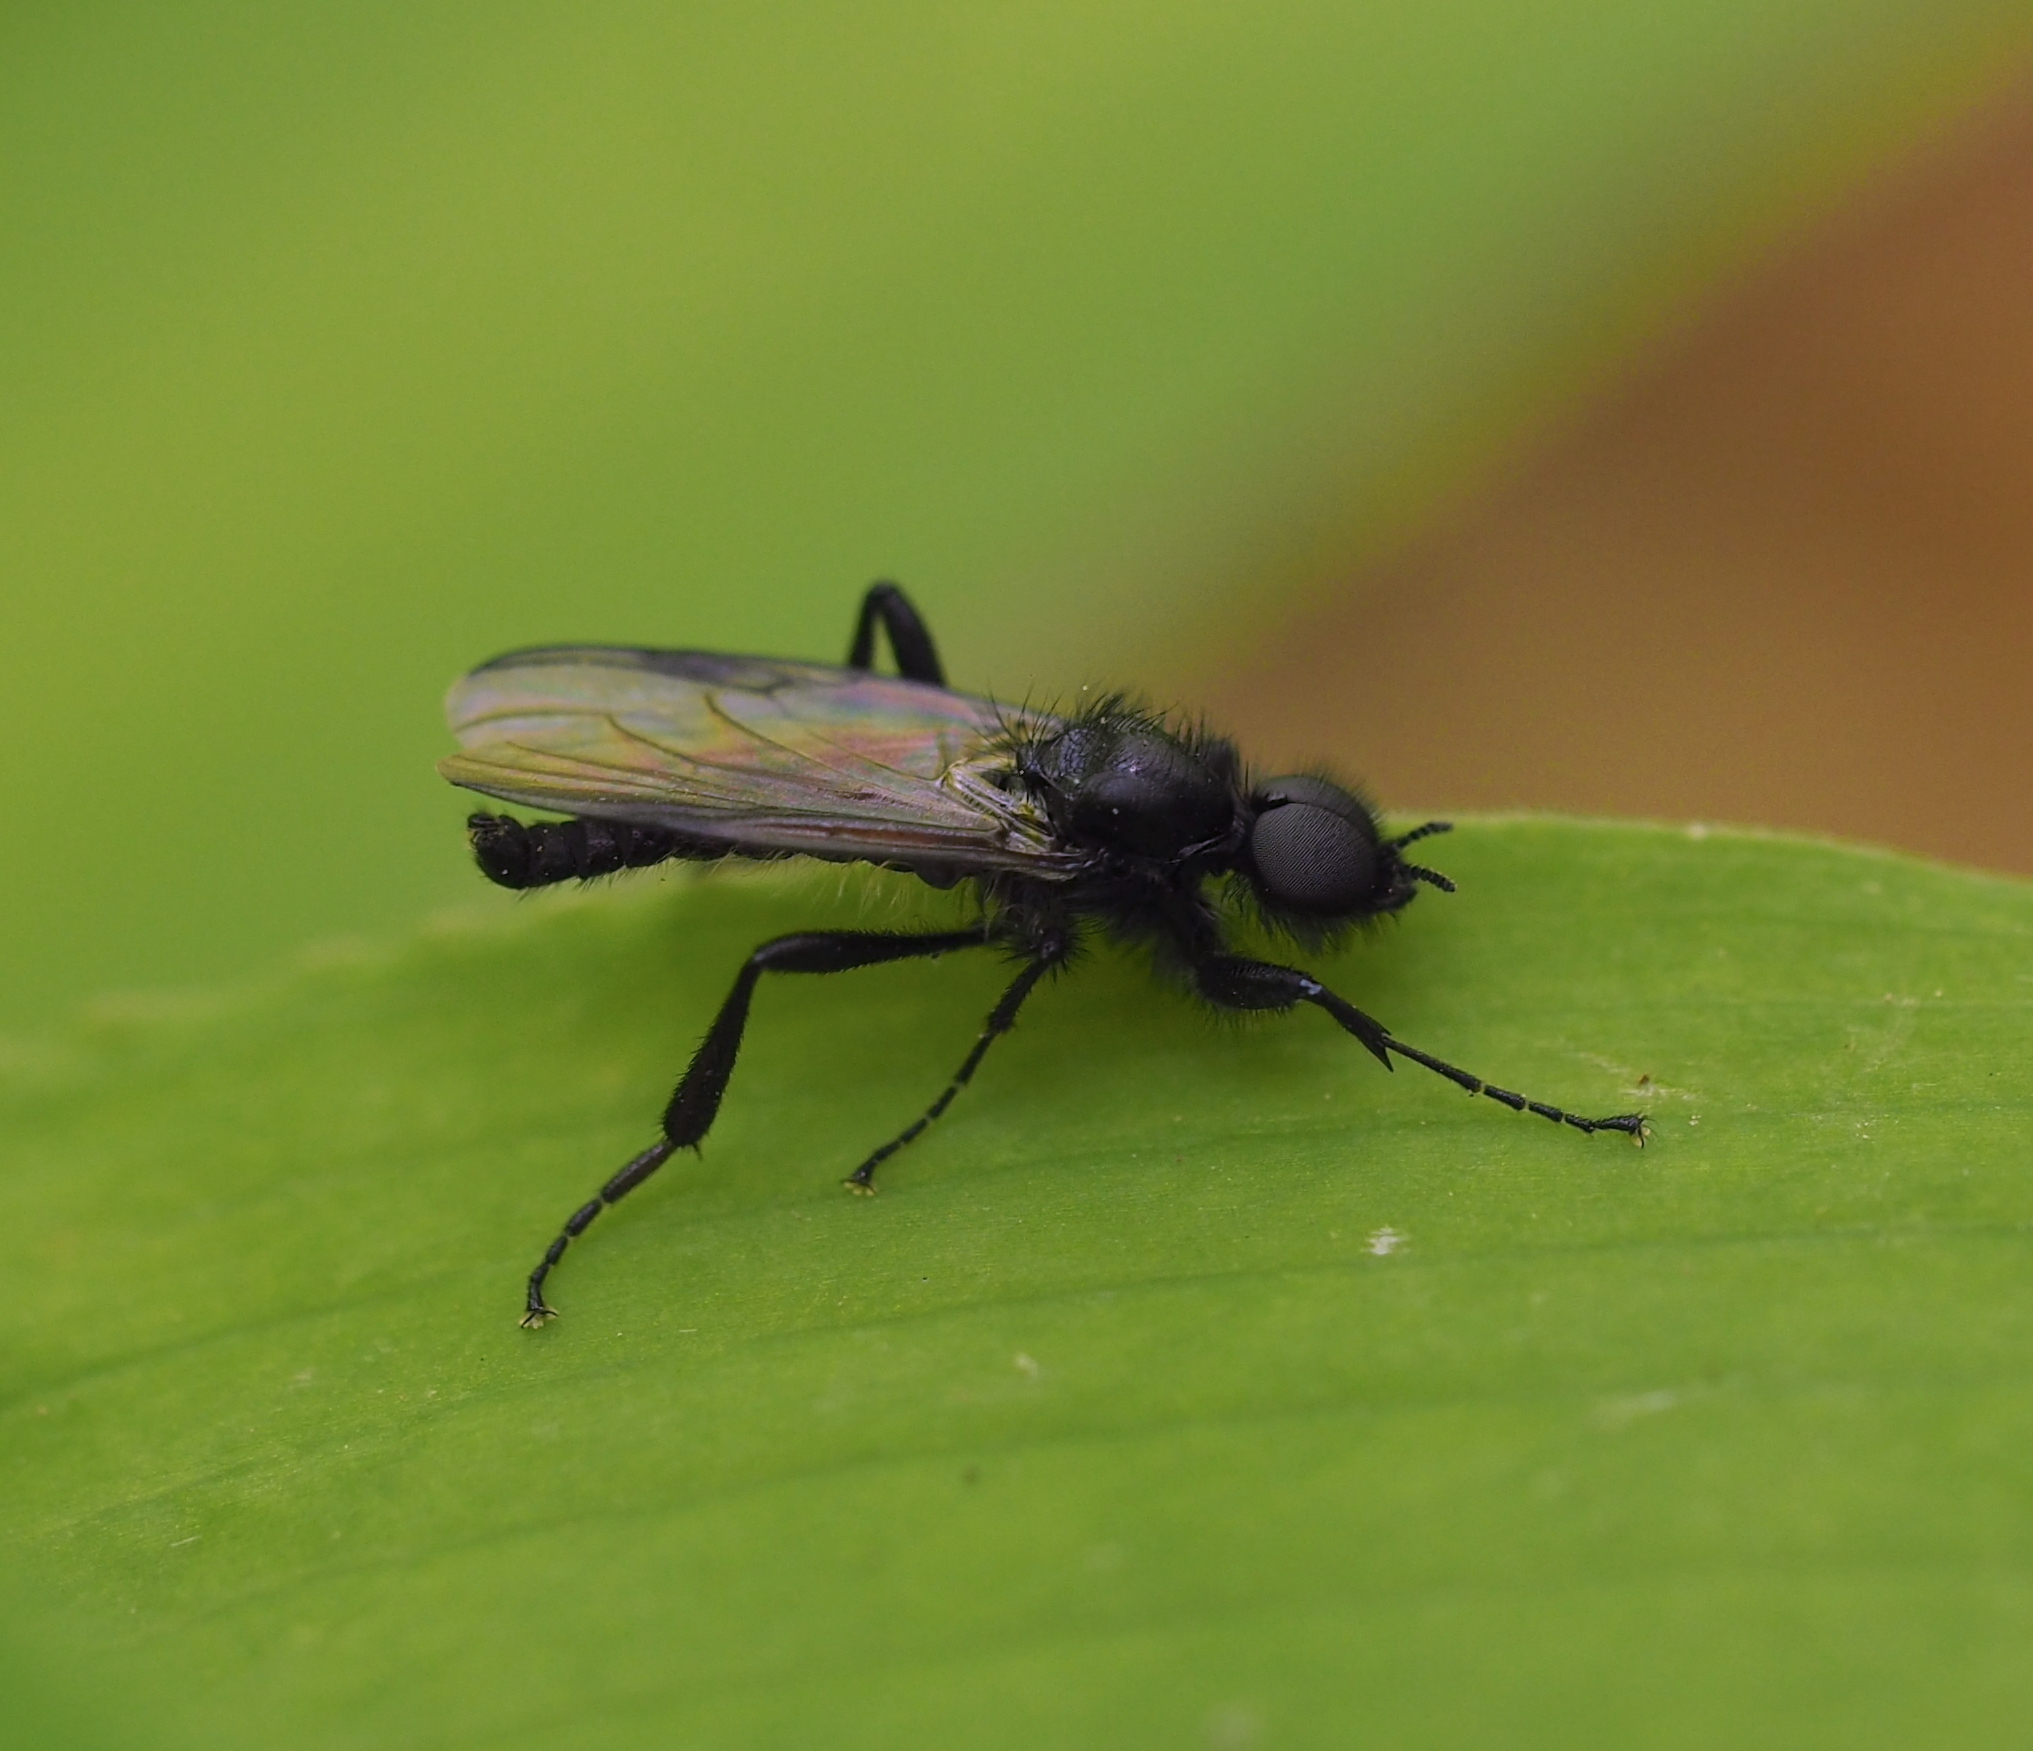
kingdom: Animalia
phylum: Arthropoda
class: Insecta
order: Diptera
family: Bibionidae
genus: Bibio
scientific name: Bibio marci
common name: St marks fly
